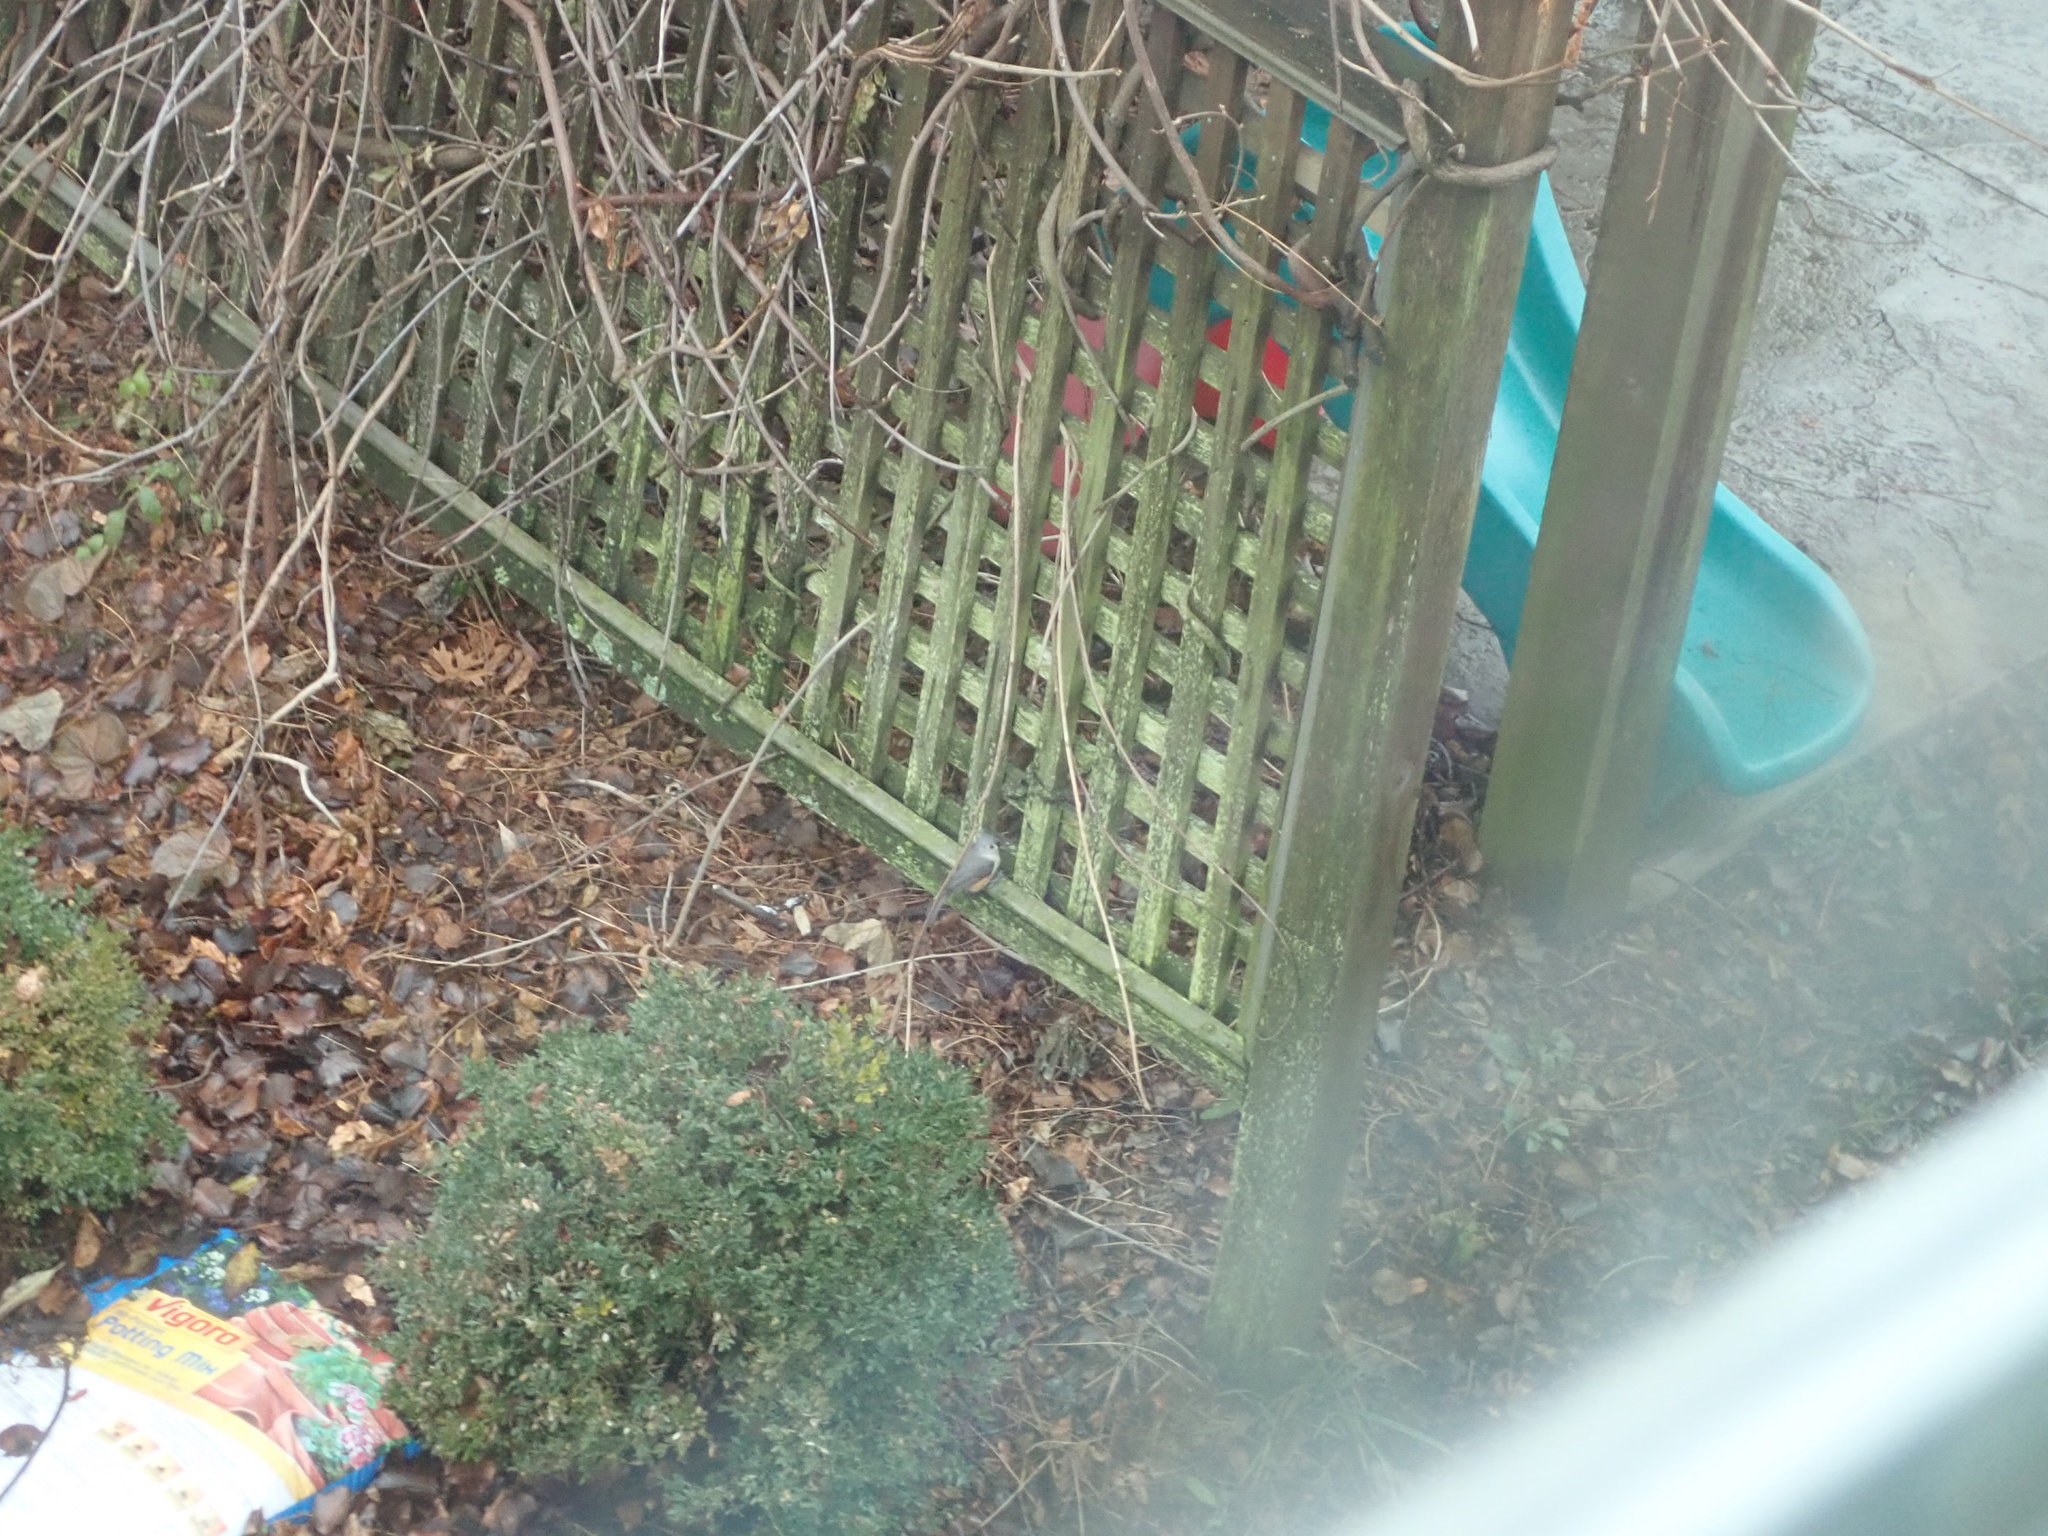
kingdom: Animalia
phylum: Chordata
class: Aves
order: Passeriformes
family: Paridae
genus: Baeolophus
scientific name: Baeolophus bicolor
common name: Tufted titmouse
